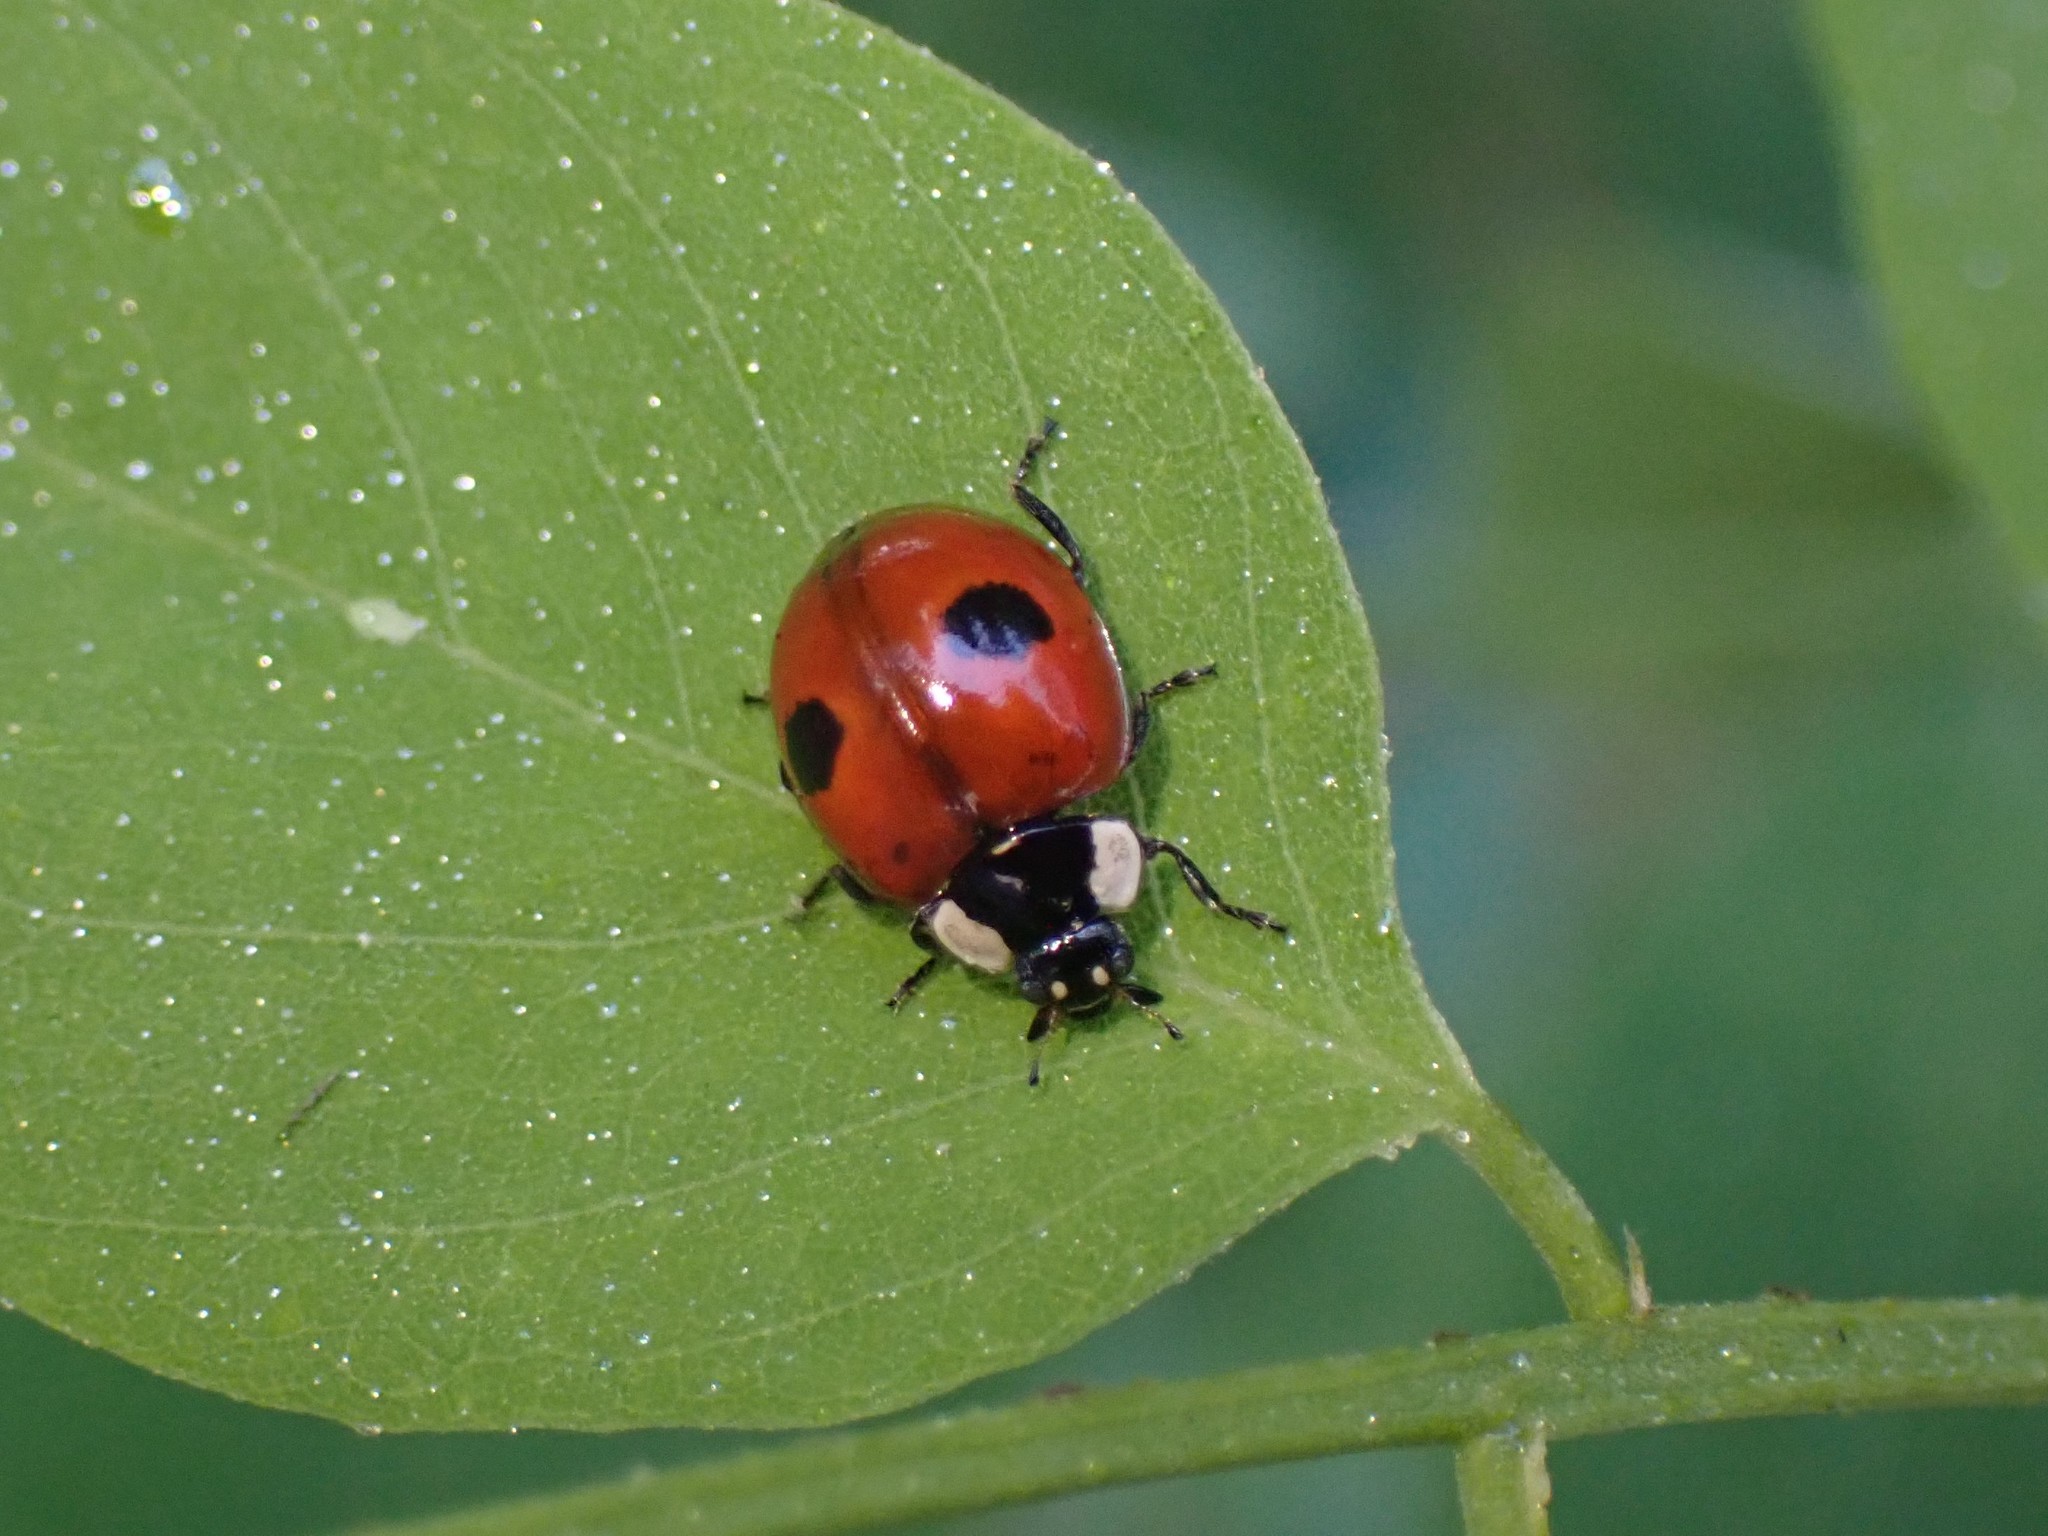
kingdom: Animalia
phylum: Arthropoda
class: Insecta
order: Coleoptera
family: Coccinellidae
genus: Adalia
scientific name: Adalia bipunctata
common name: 2-spot ladybird
